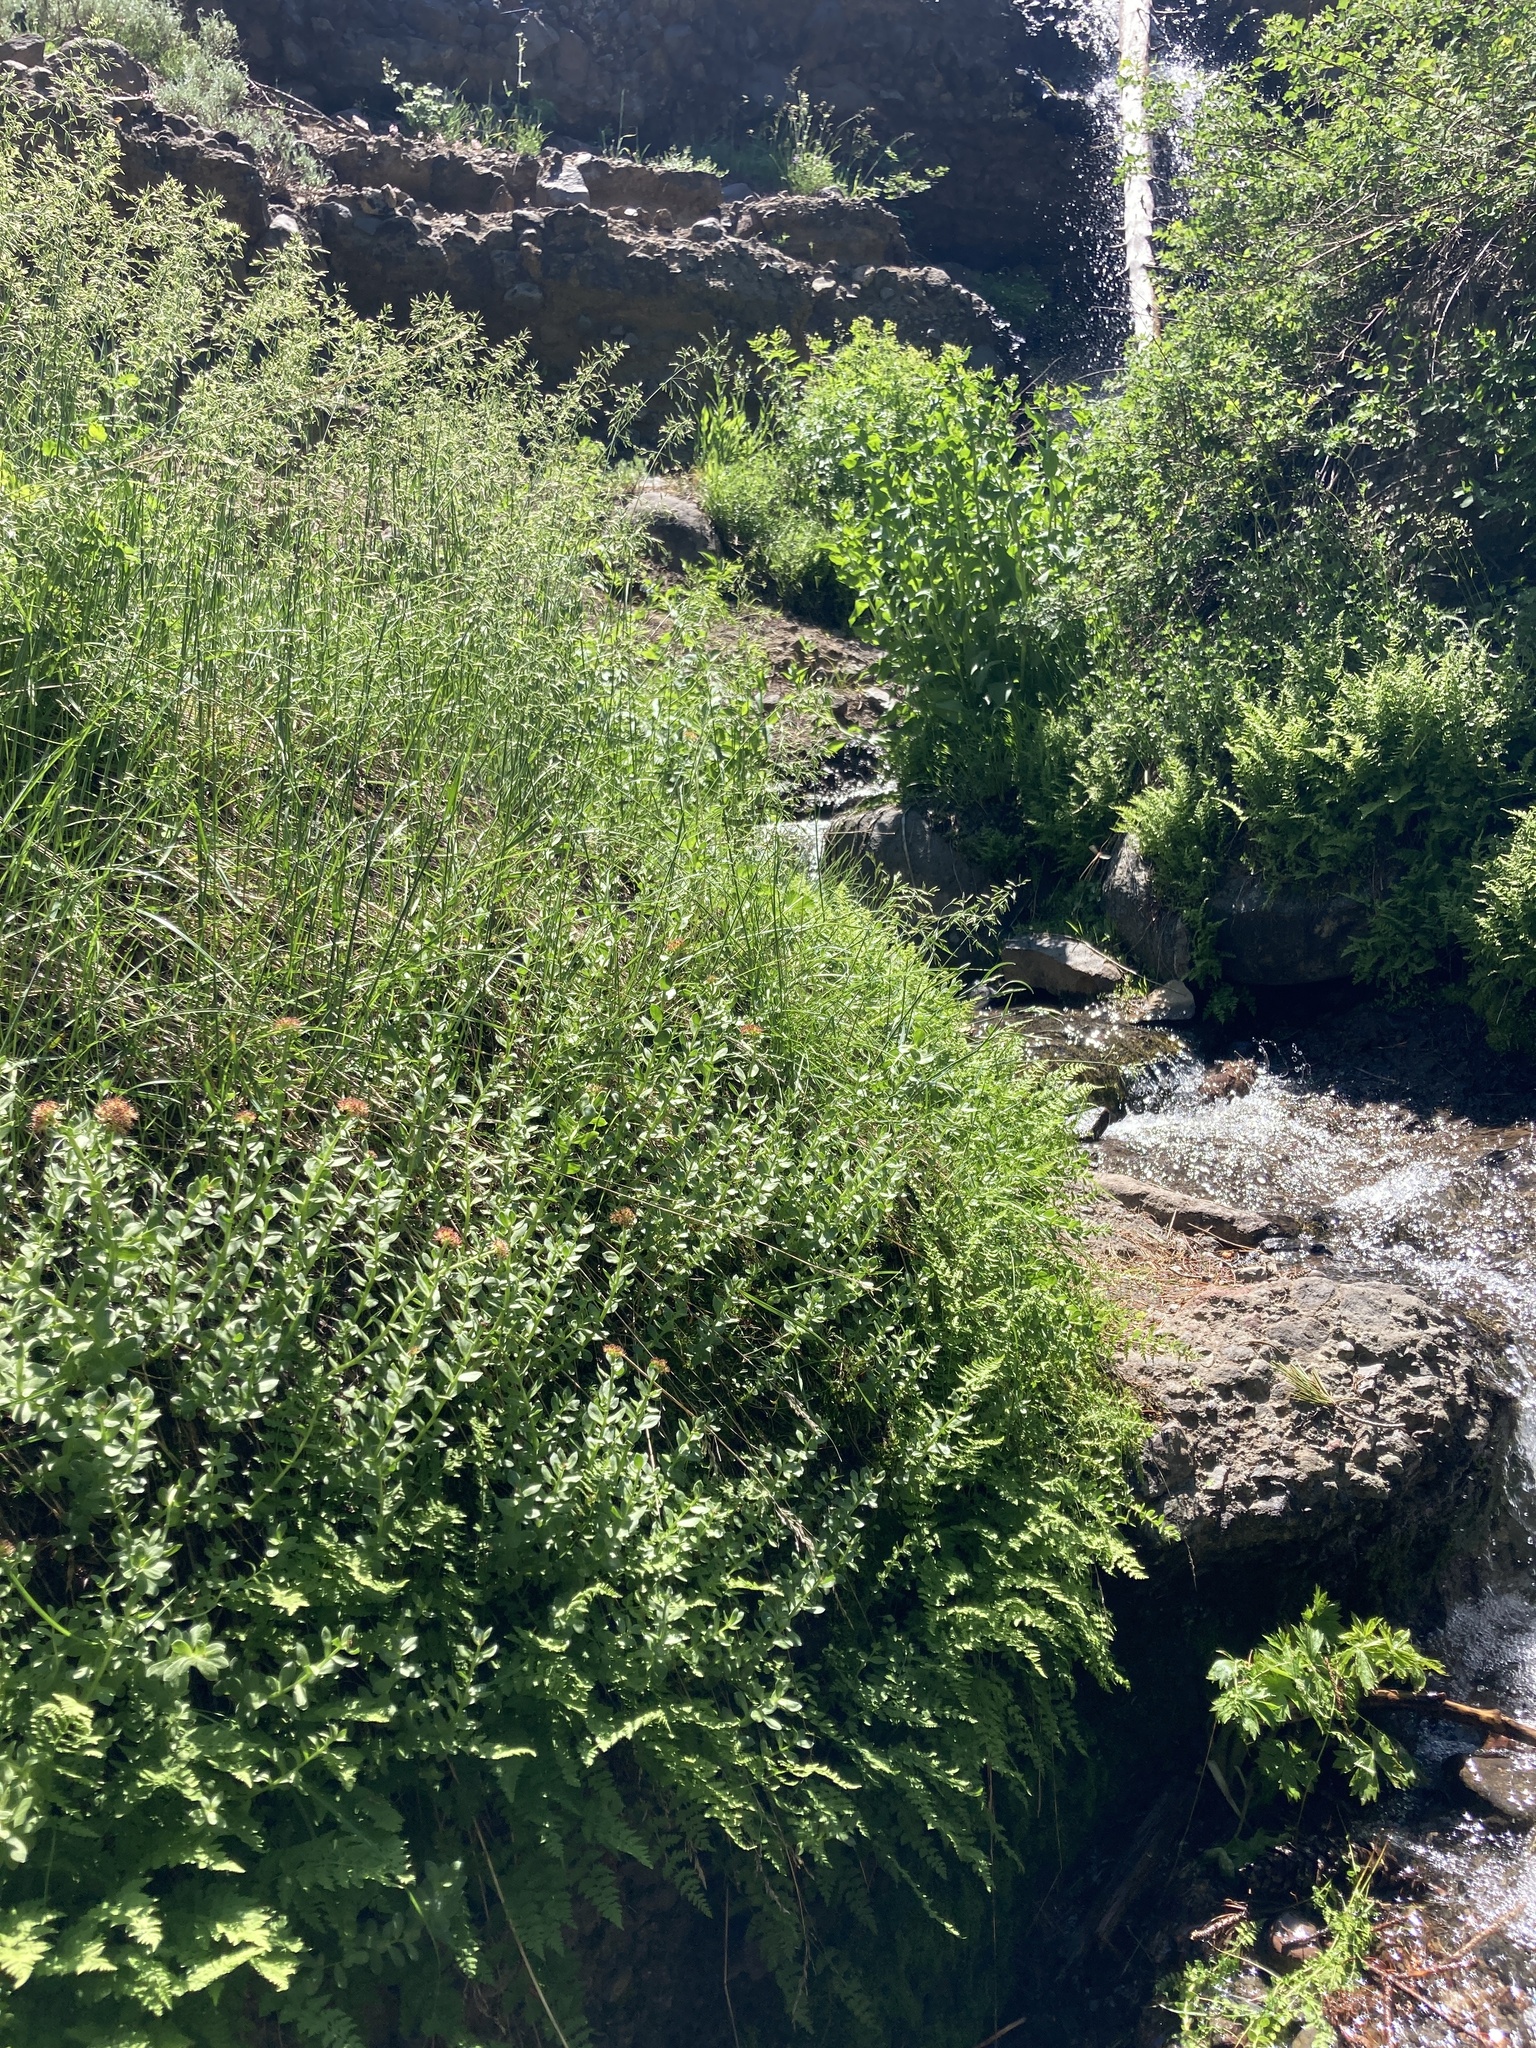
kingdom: Plantae
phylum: Tracheophyta
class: Polypodiopsida
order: Polypodiales
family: Cystopteridaceae
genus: Cystopteris
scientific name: Cystopteris fragilis
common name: Brittle bladder fern
